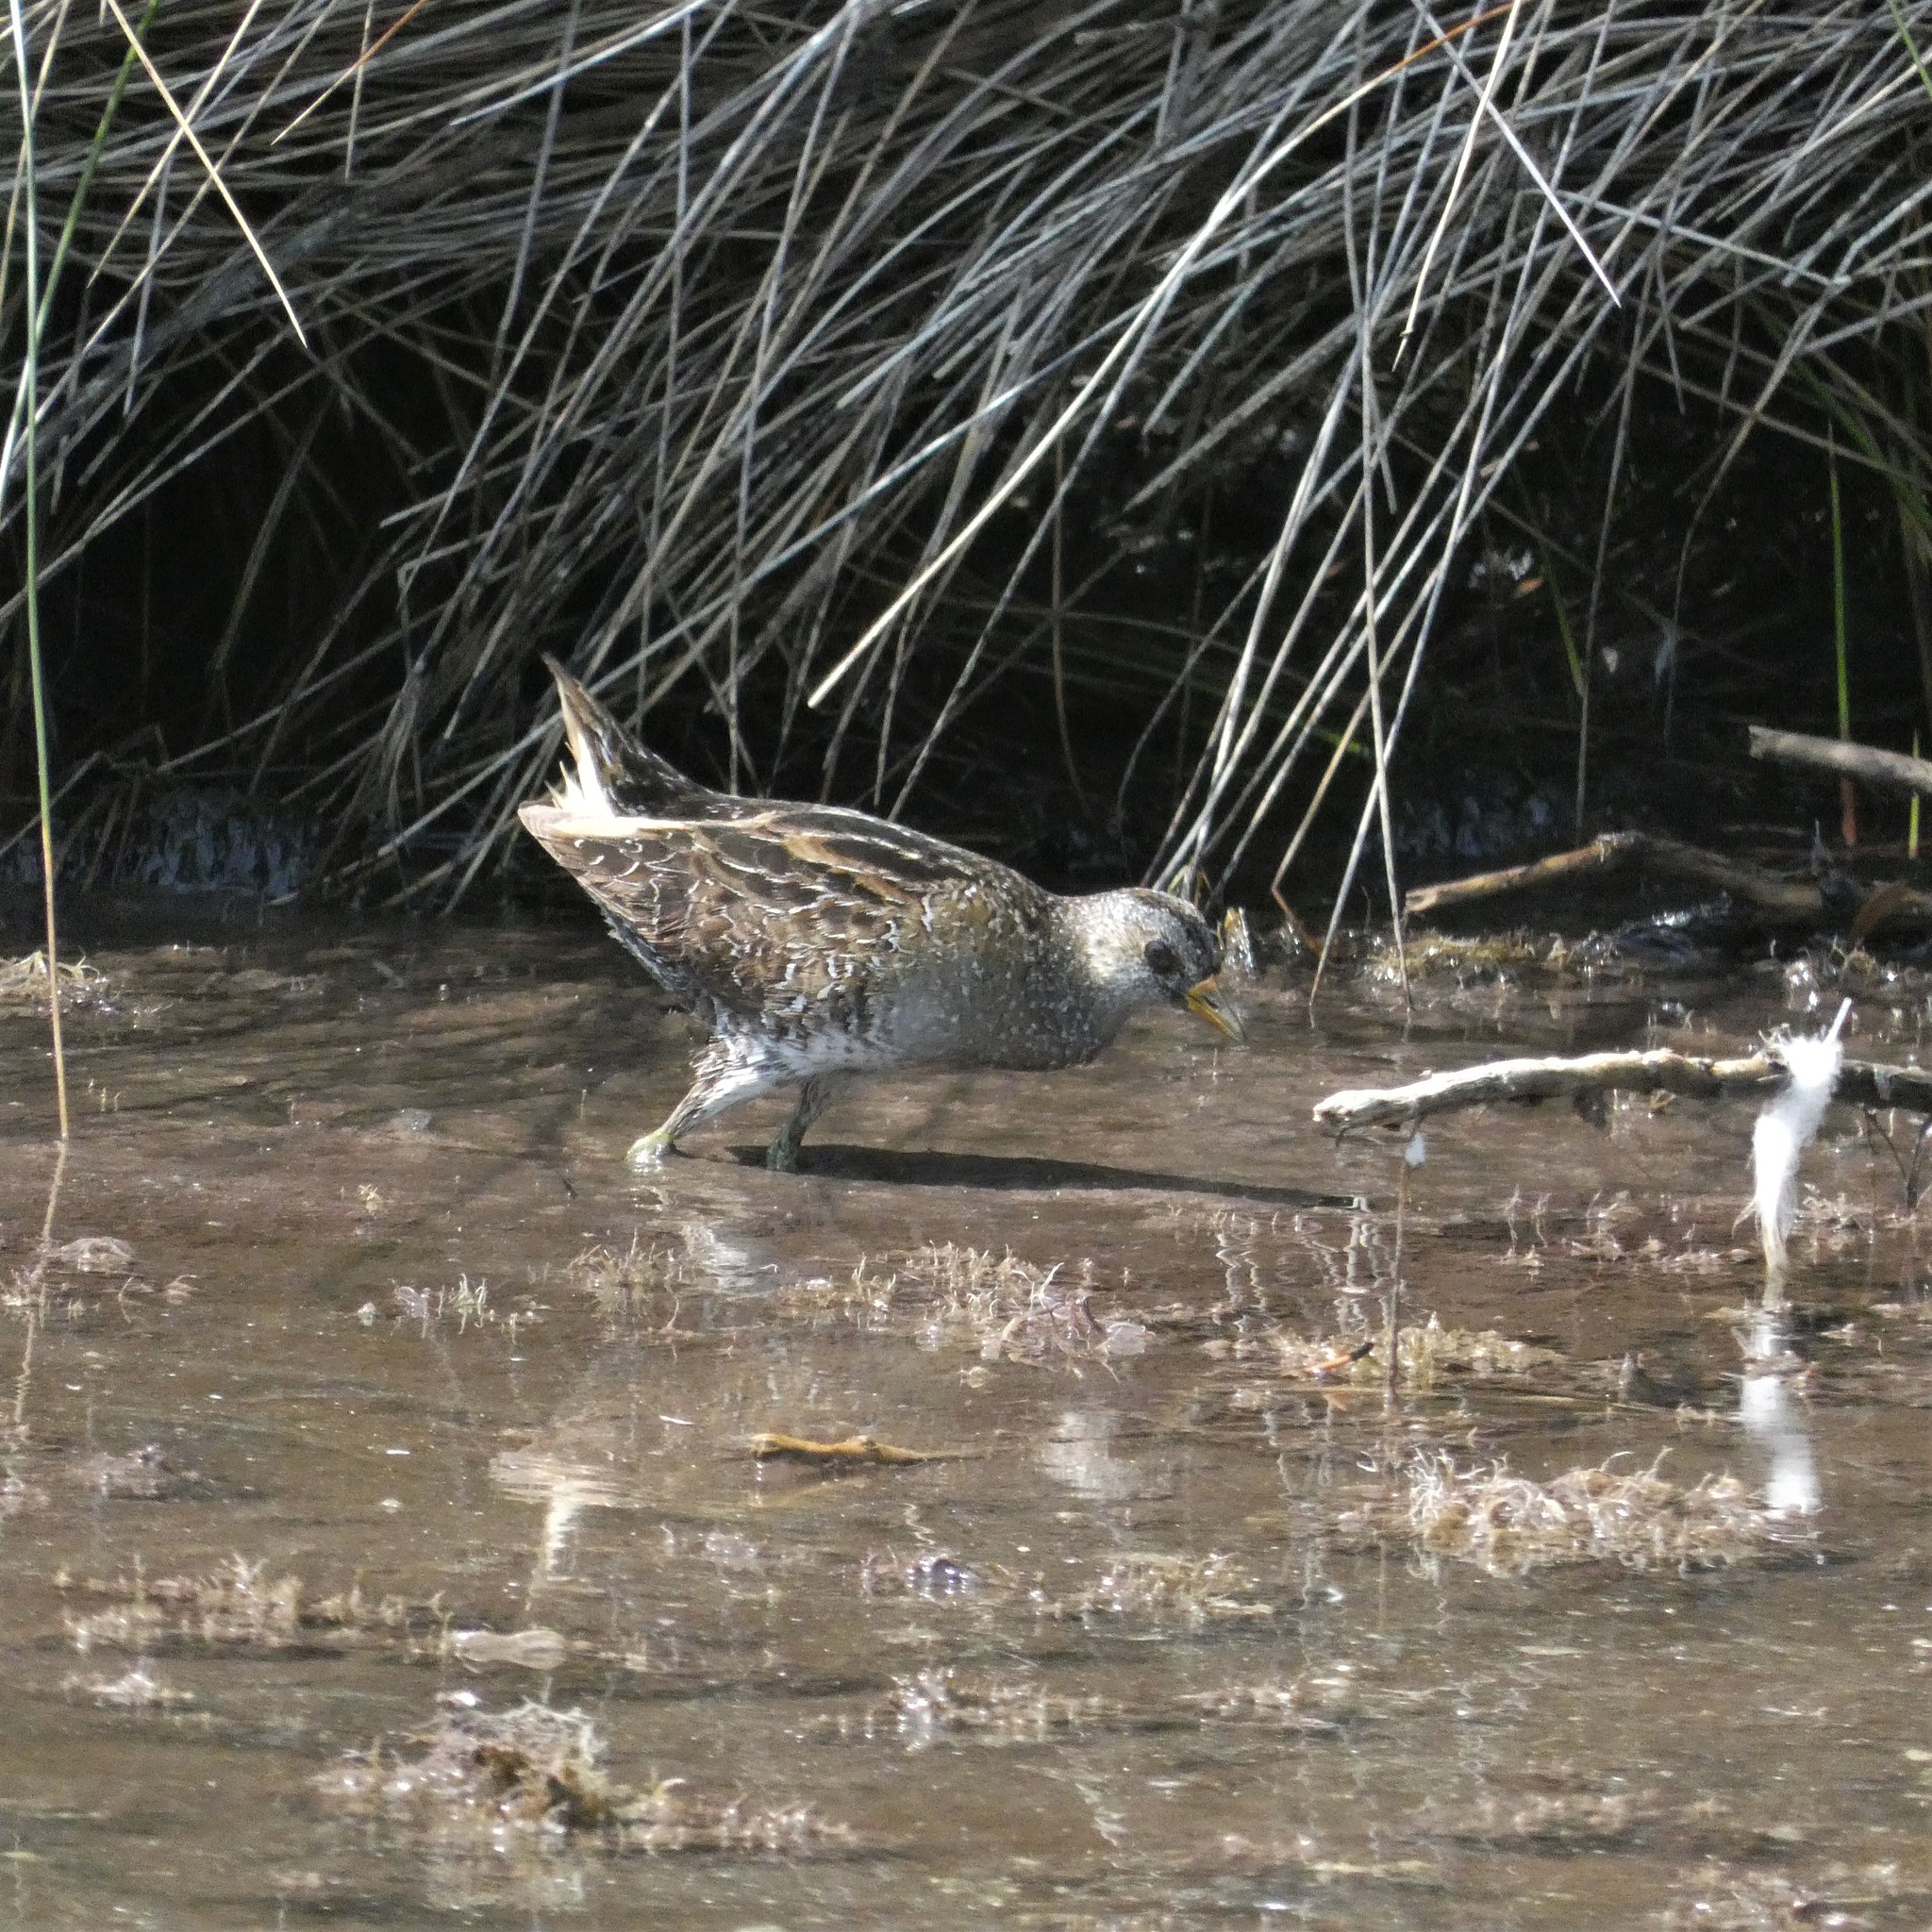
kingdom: Animalia
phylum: Chordata
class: Aves
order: Gruiformes
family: Rallidae
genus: Porzana
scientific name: Porzana porzana
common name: Spotted crake
